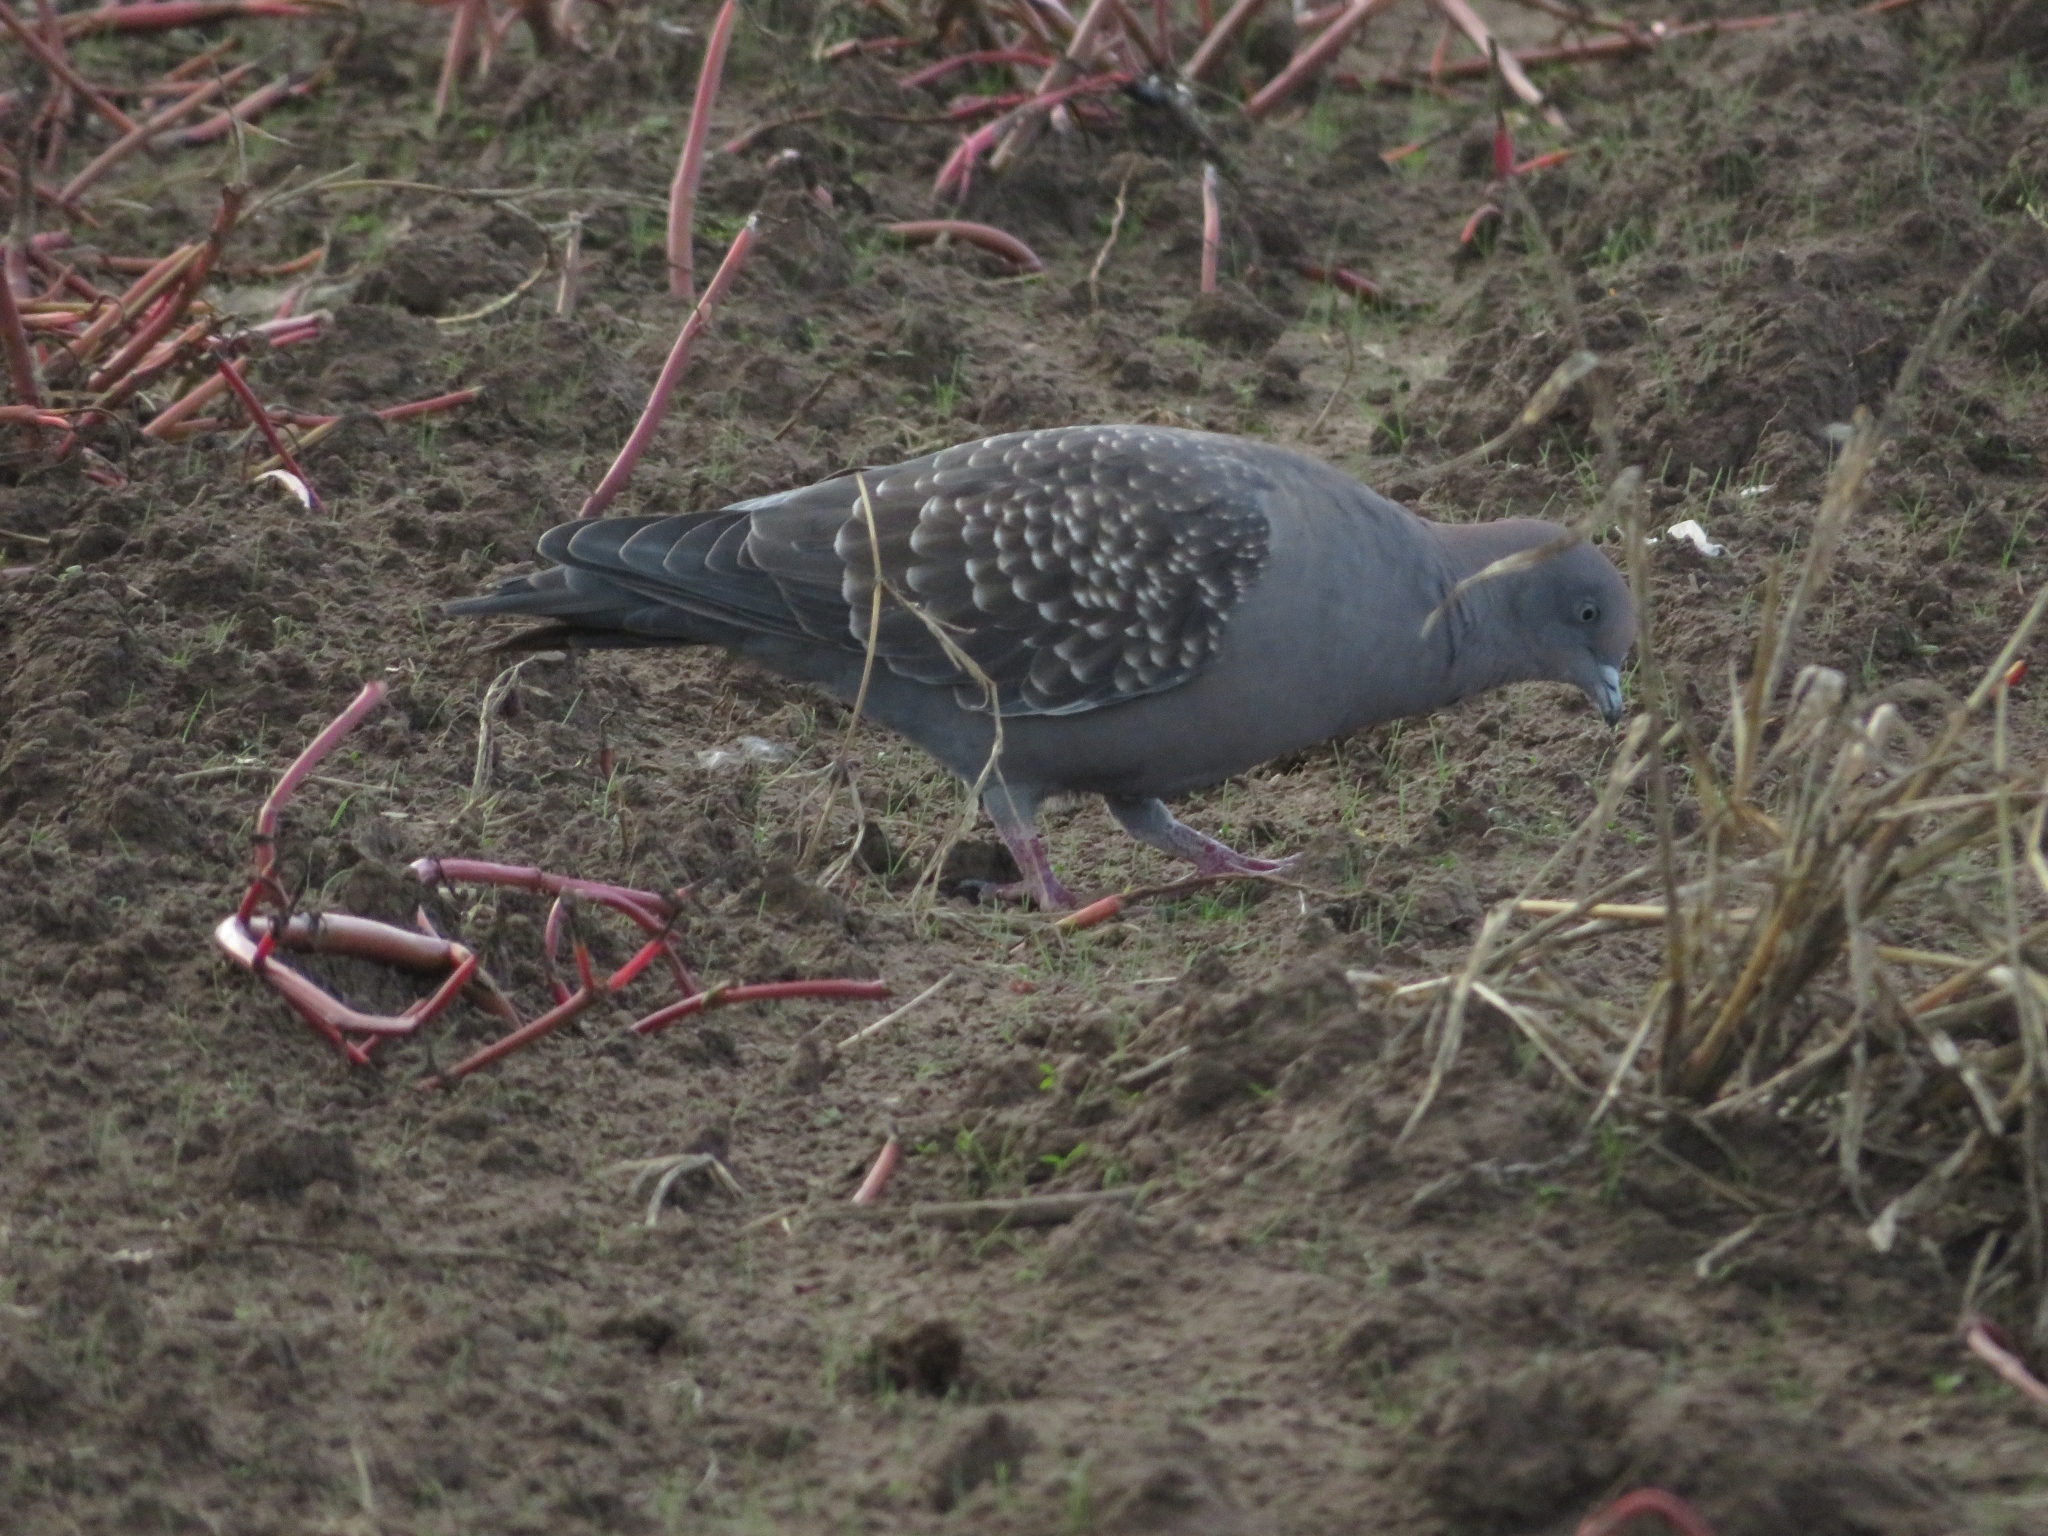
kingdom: Animalia
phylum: Chordata
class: Aves
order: Columbiformes
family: Columbidae
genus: Patagioenas
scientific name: Patagioenas maculosa
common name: Spot-winged pigeon
